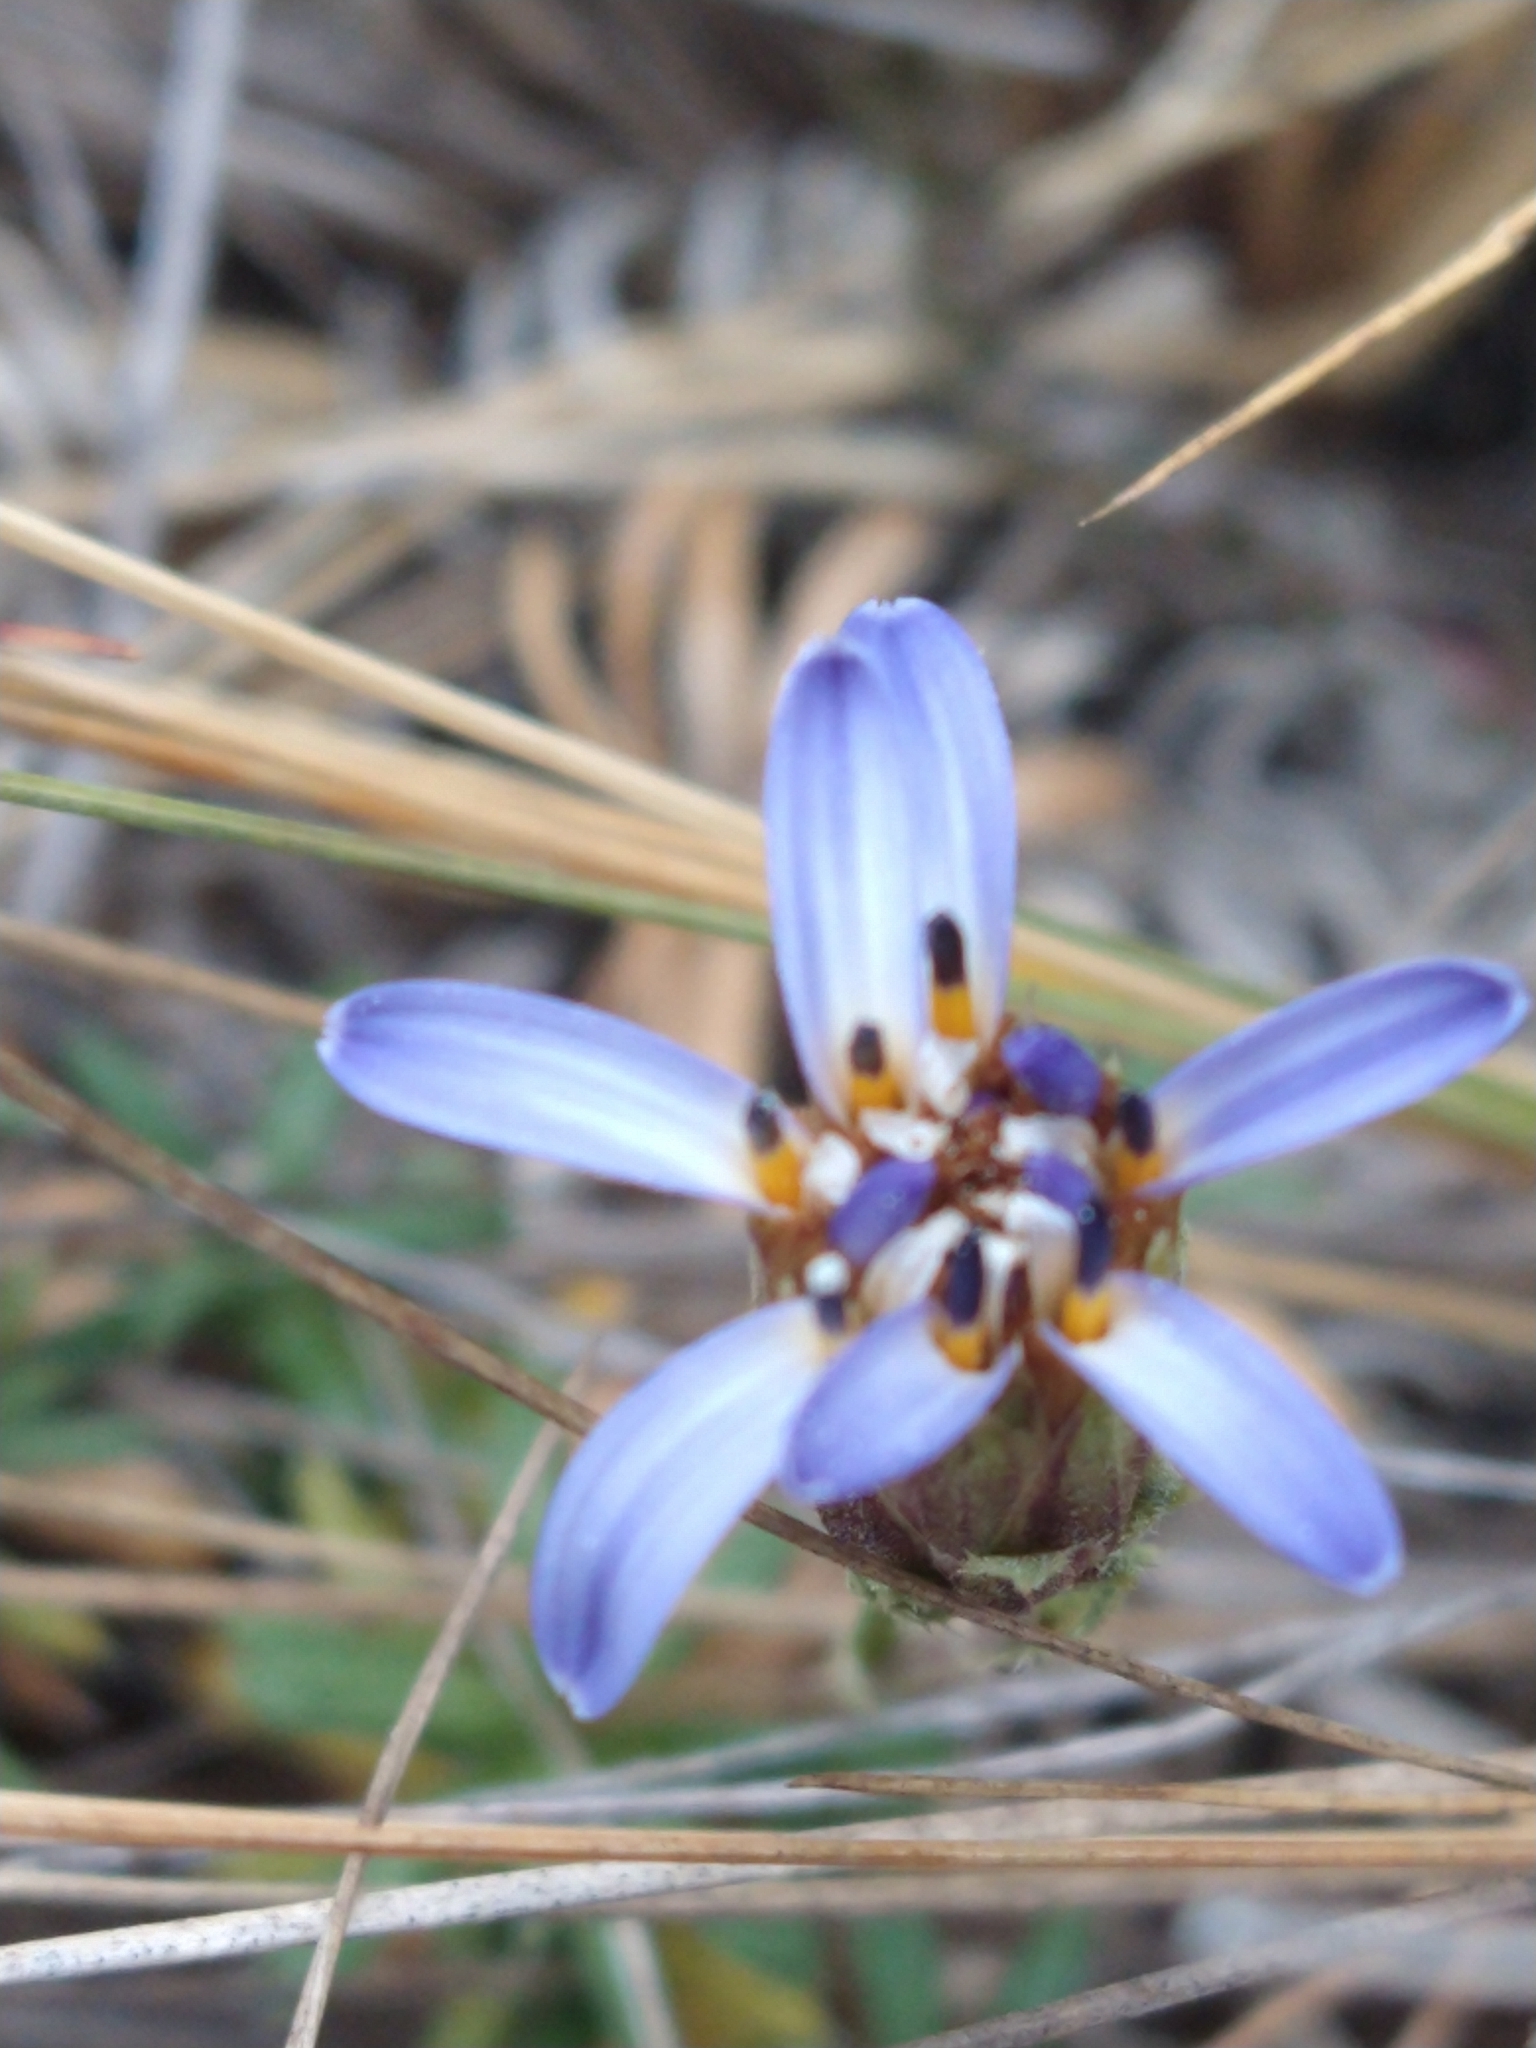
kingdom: Plantae
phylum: Tracheophyta
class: Magnoliopsida
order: Asterales
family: Asteraceae
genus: Perezia
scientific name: Perezia recurvata
